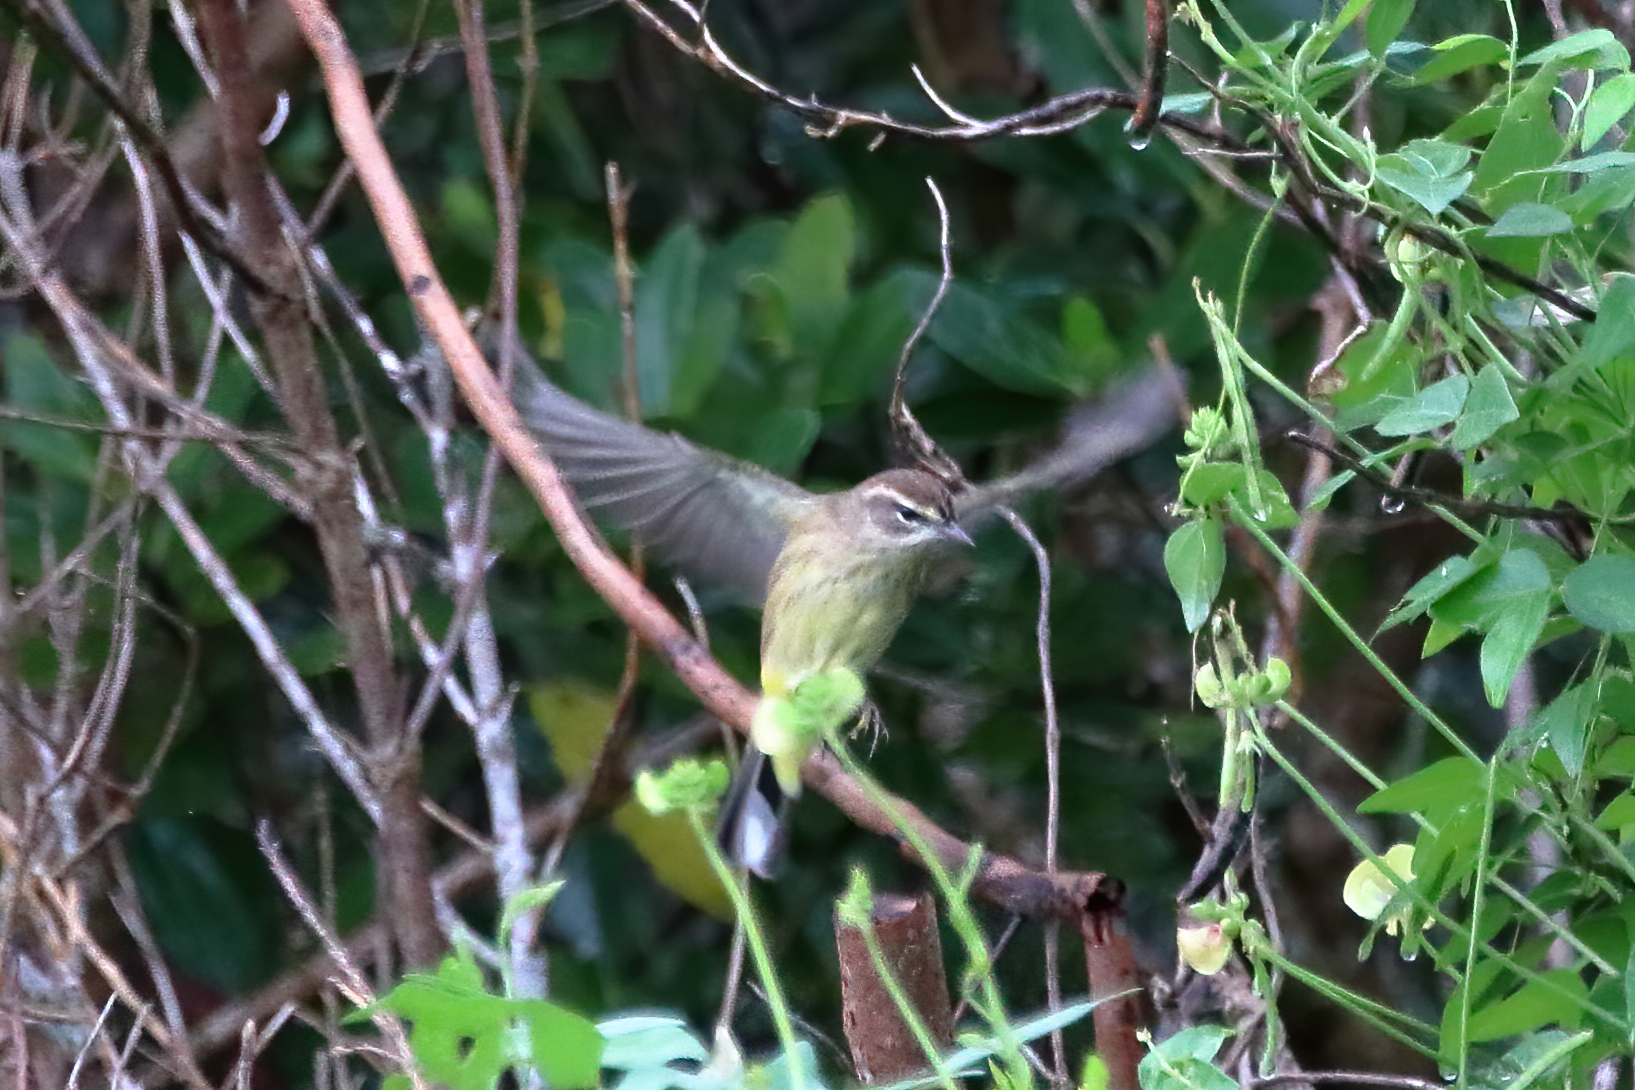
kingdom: Animalia
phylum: Chordata
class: Aves
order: Passeriformes
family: Parulidae
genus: Setophaga
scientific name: Setophaga palmarum
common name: Palm warbler
